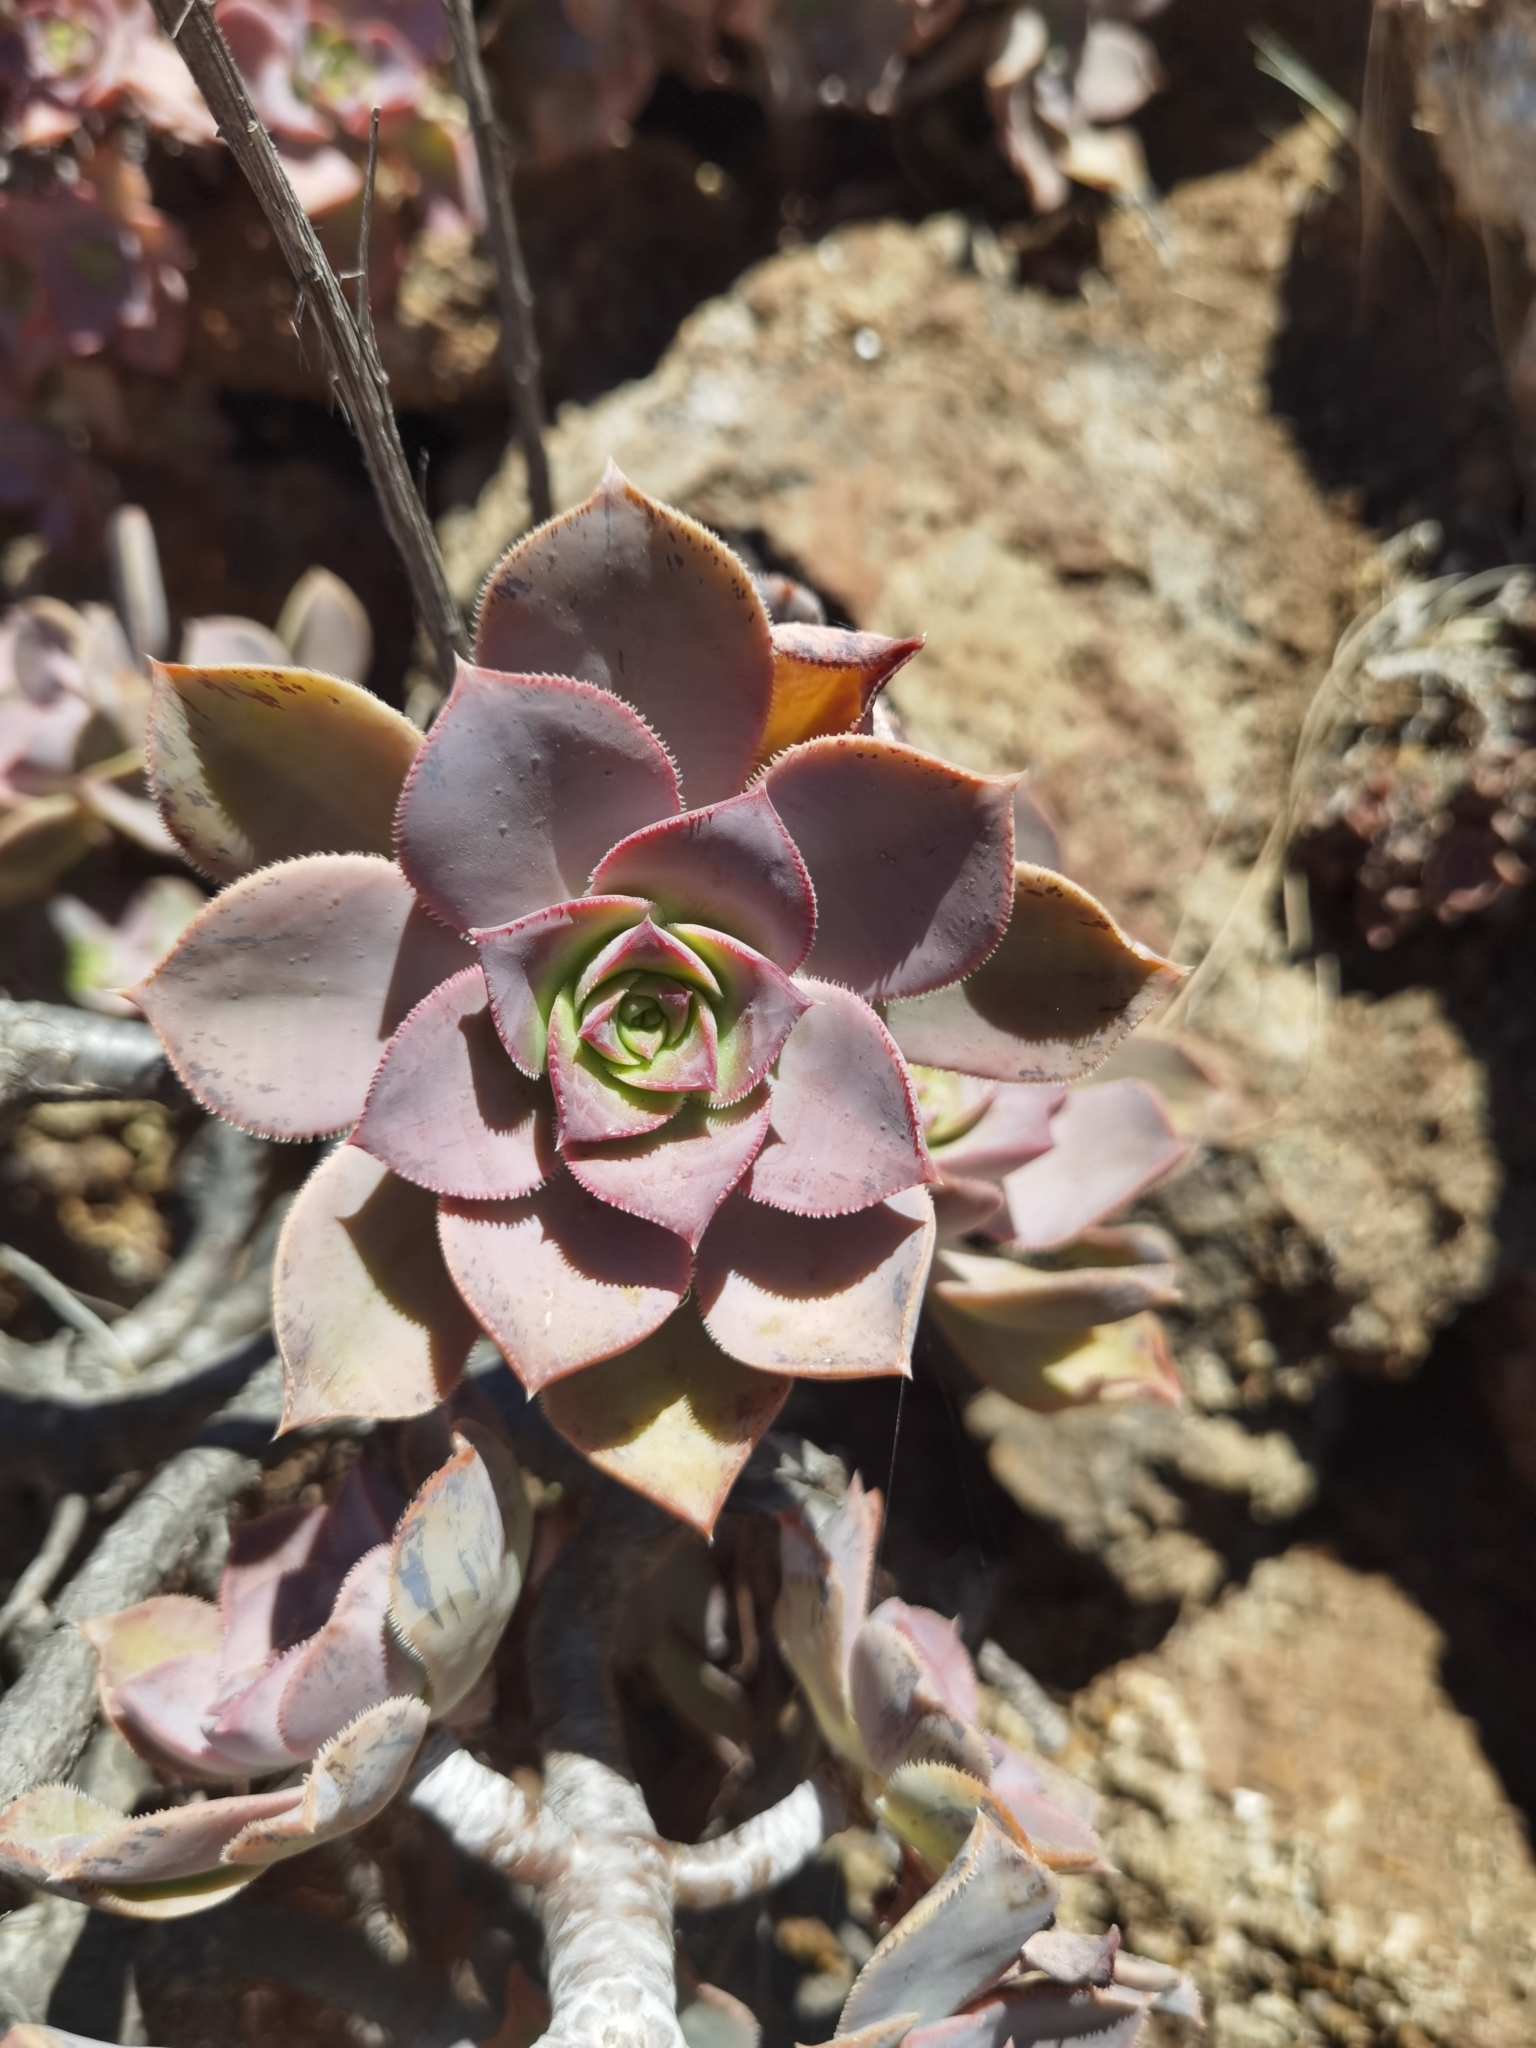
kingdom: Plantae
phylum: Tracheophyta
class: Magnoliopsida
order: Saxifragales
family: Crassulaceae
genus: Aeonium
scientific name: Aeonium davidbramwellii
